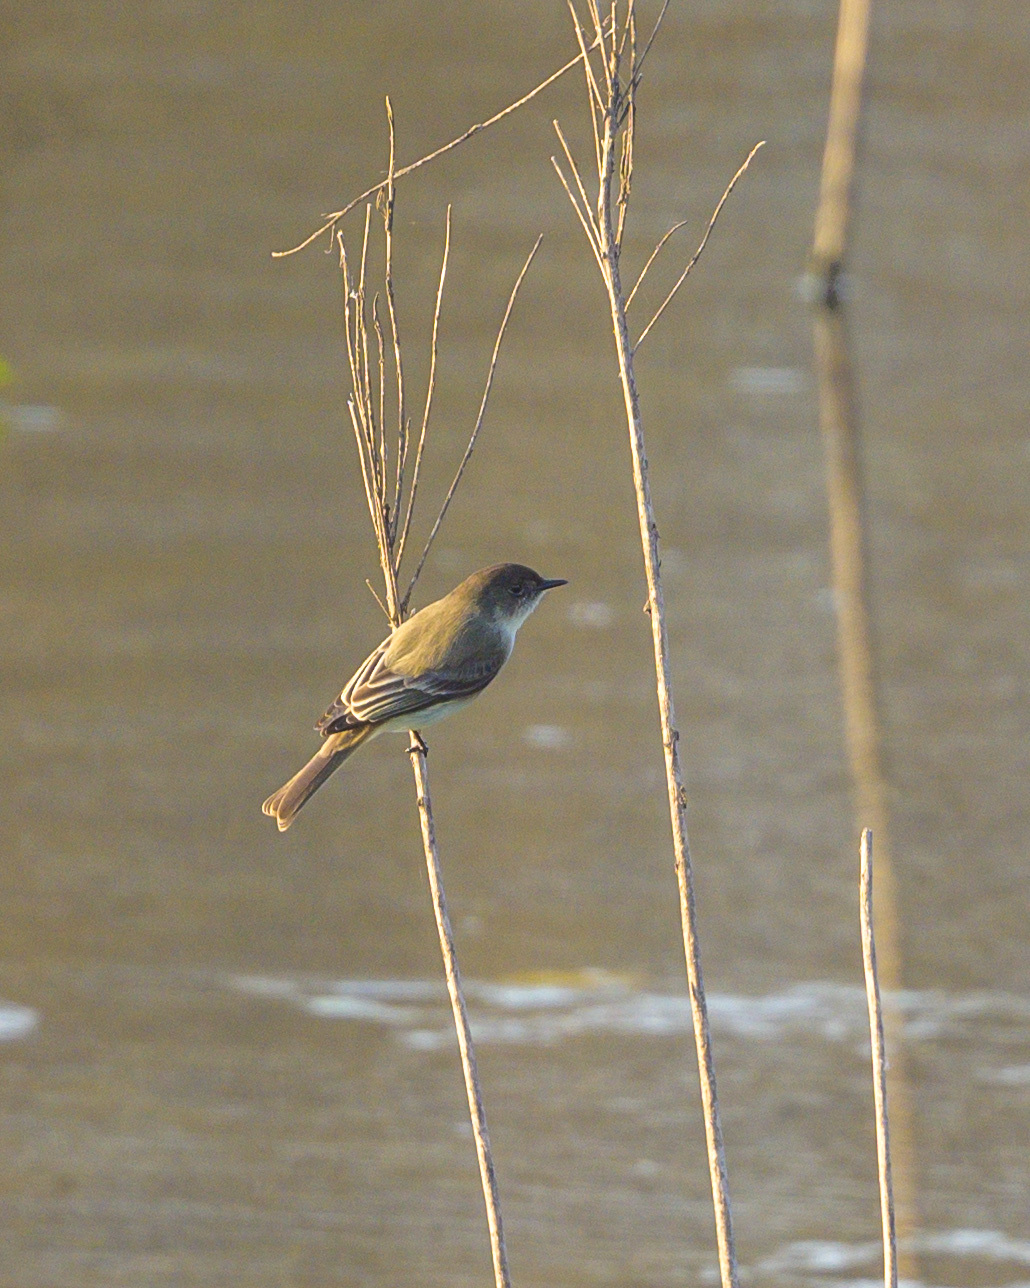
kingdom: Animalia
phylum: Chordata
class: Aves
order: Passeriformes
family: Tyrannidae
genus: Sayornis
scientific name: Sayornis phoebe
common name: Eastern phoebe
